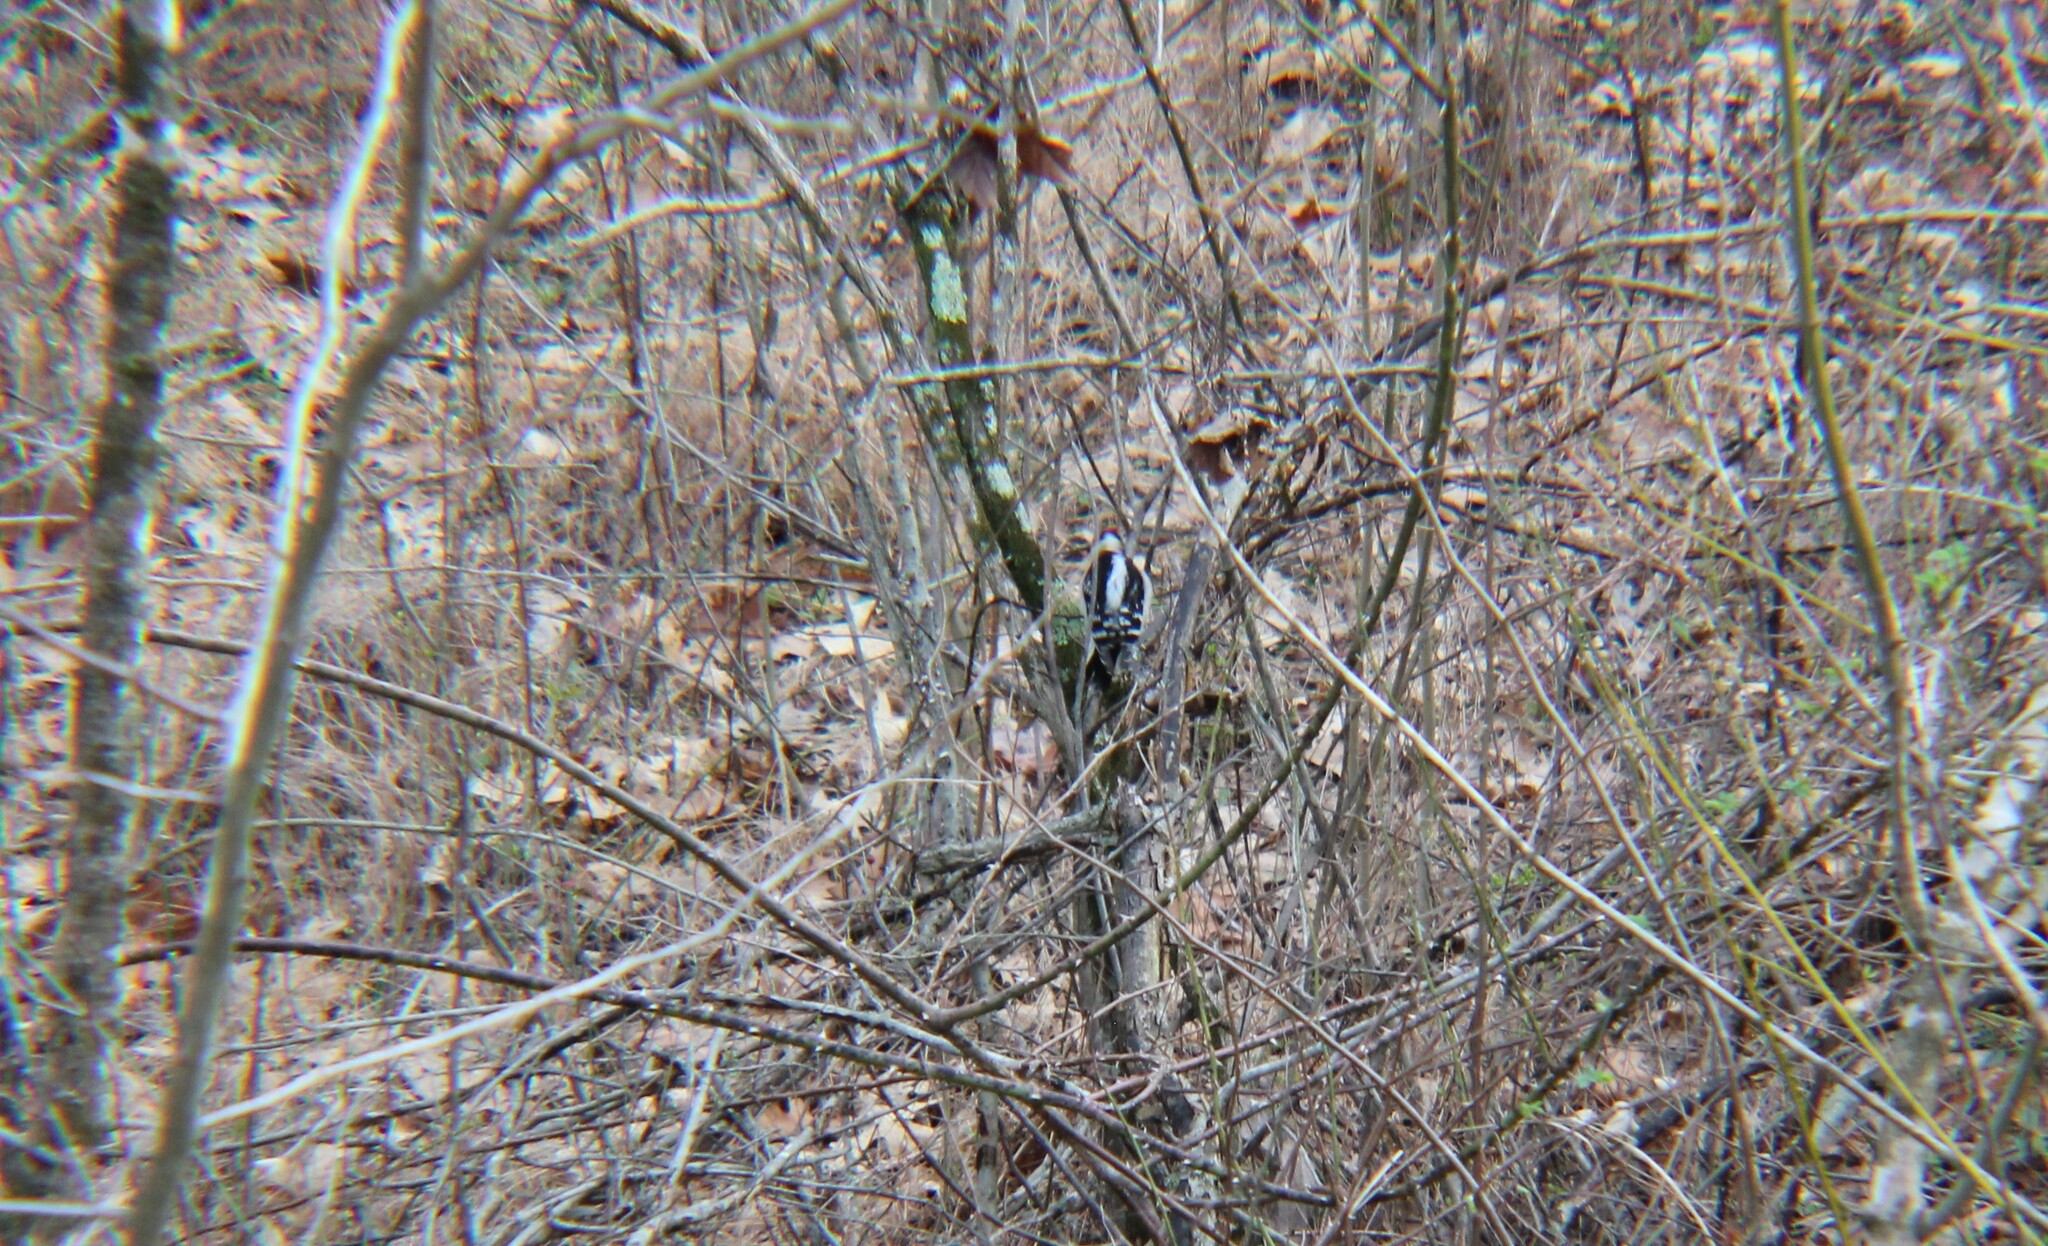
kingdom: Animalia
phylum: Chordata
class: Aves
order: Piciformes
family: Picidae
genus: Dryobates
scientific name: Dryobates pubescens
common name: Downy woodpecker
